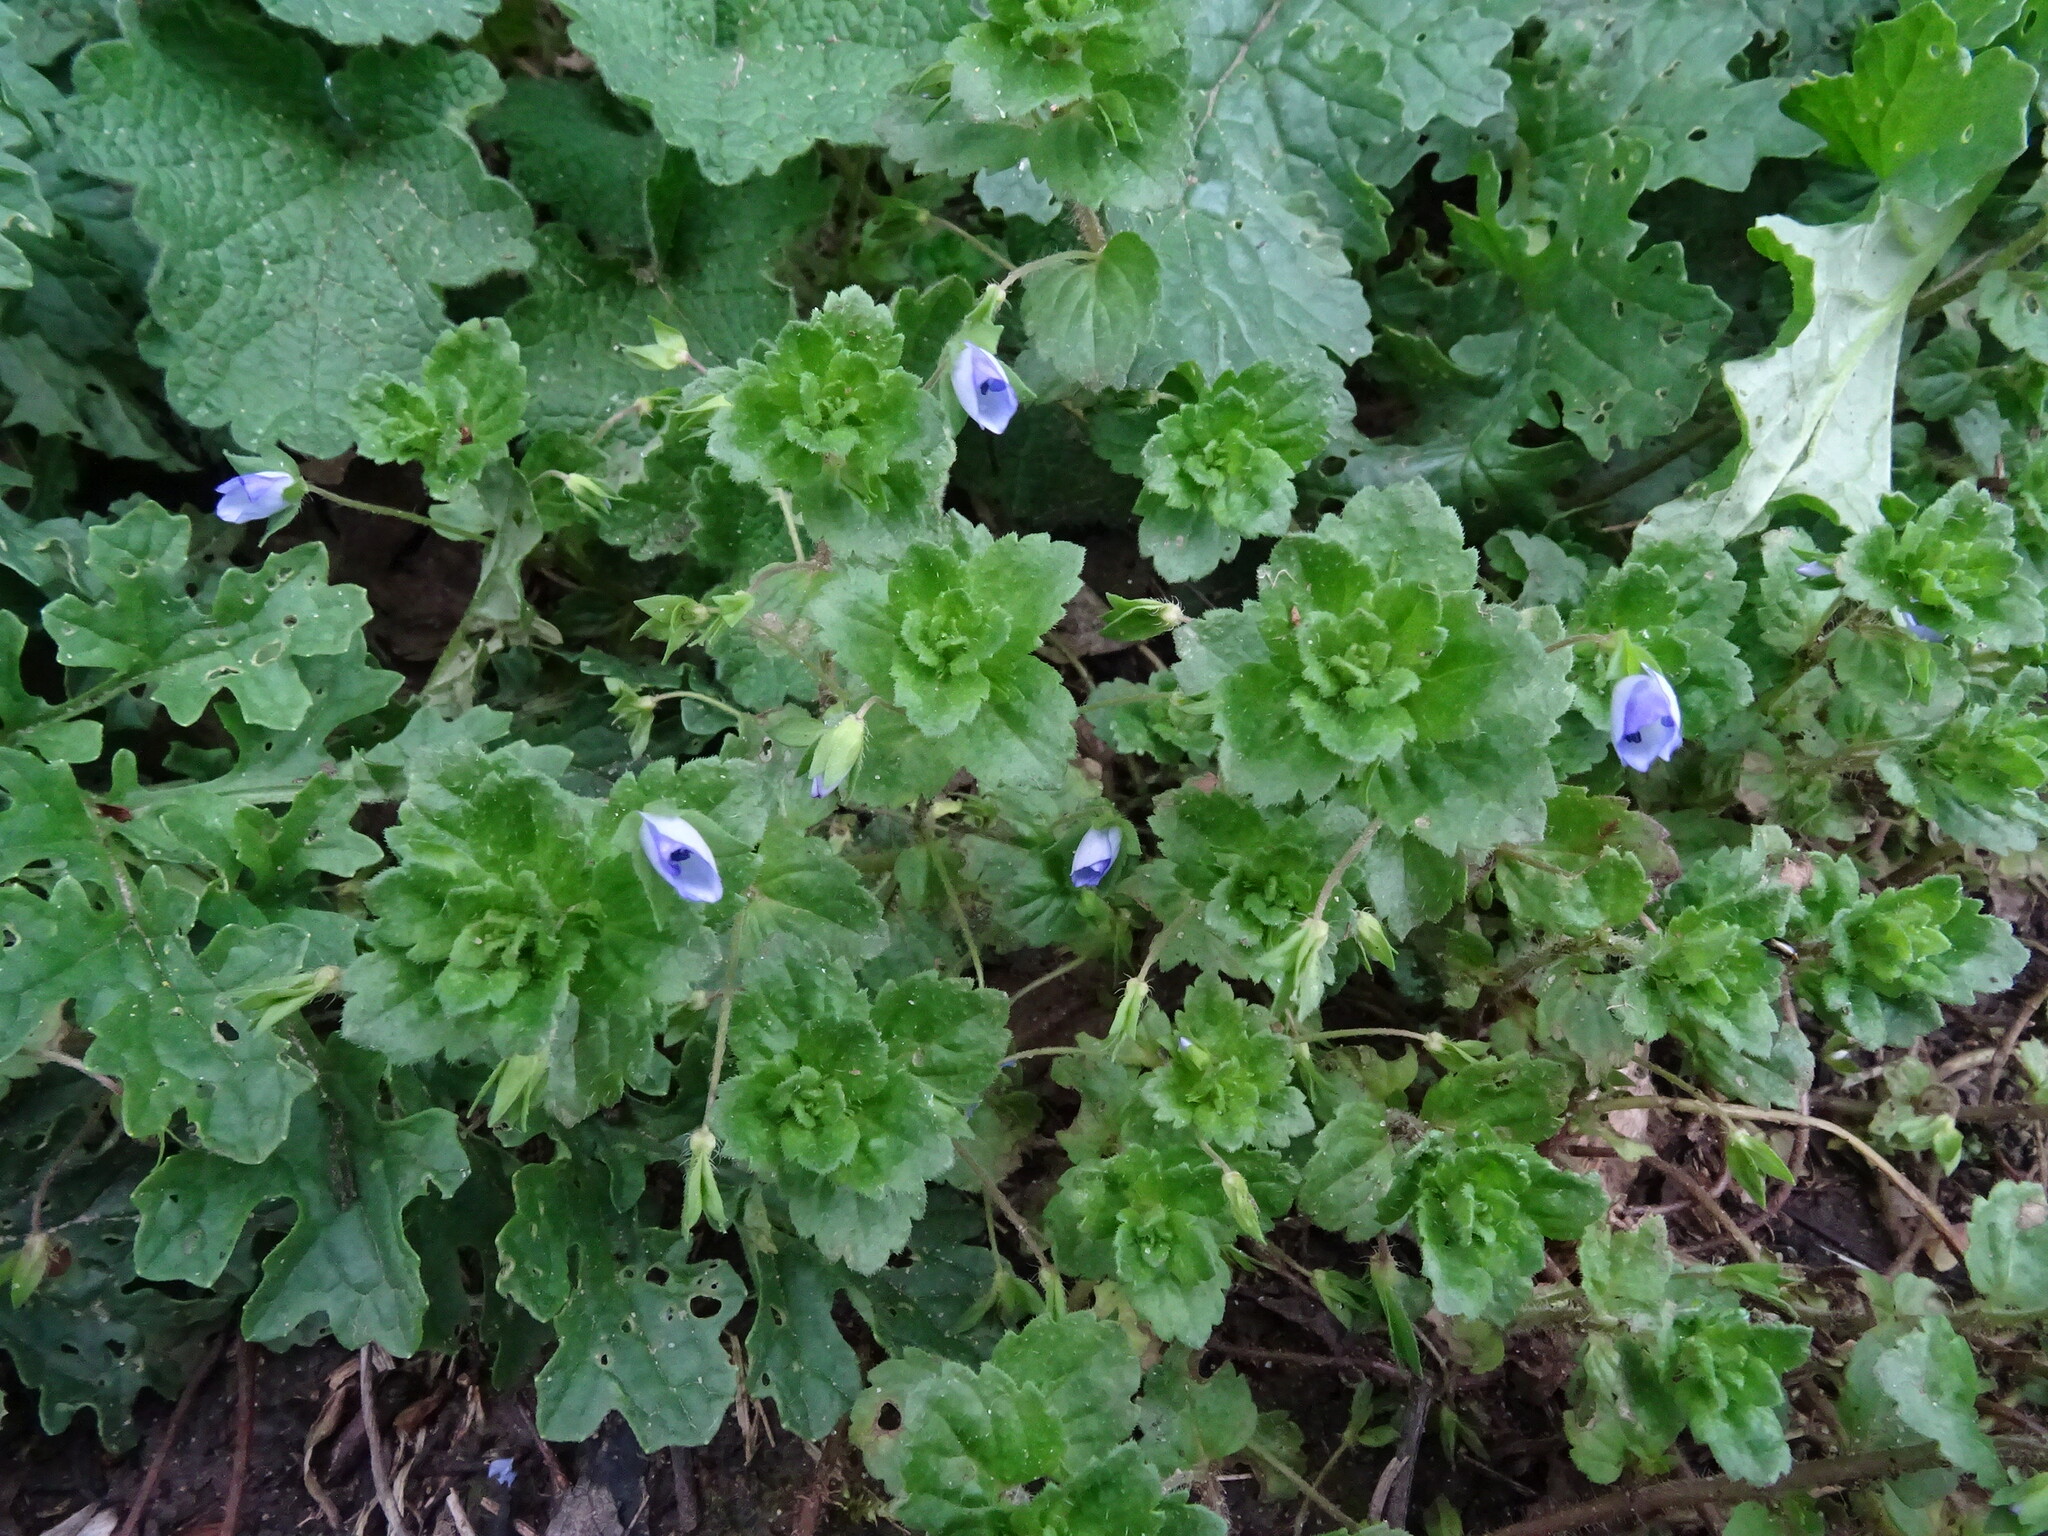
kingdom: Plantae
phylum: Tracheophyta
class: Magnoliopsida
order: Lamiales
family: Plantaginaceae
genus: Veronica
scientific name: Veronica persica
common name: Common field-speedwell
